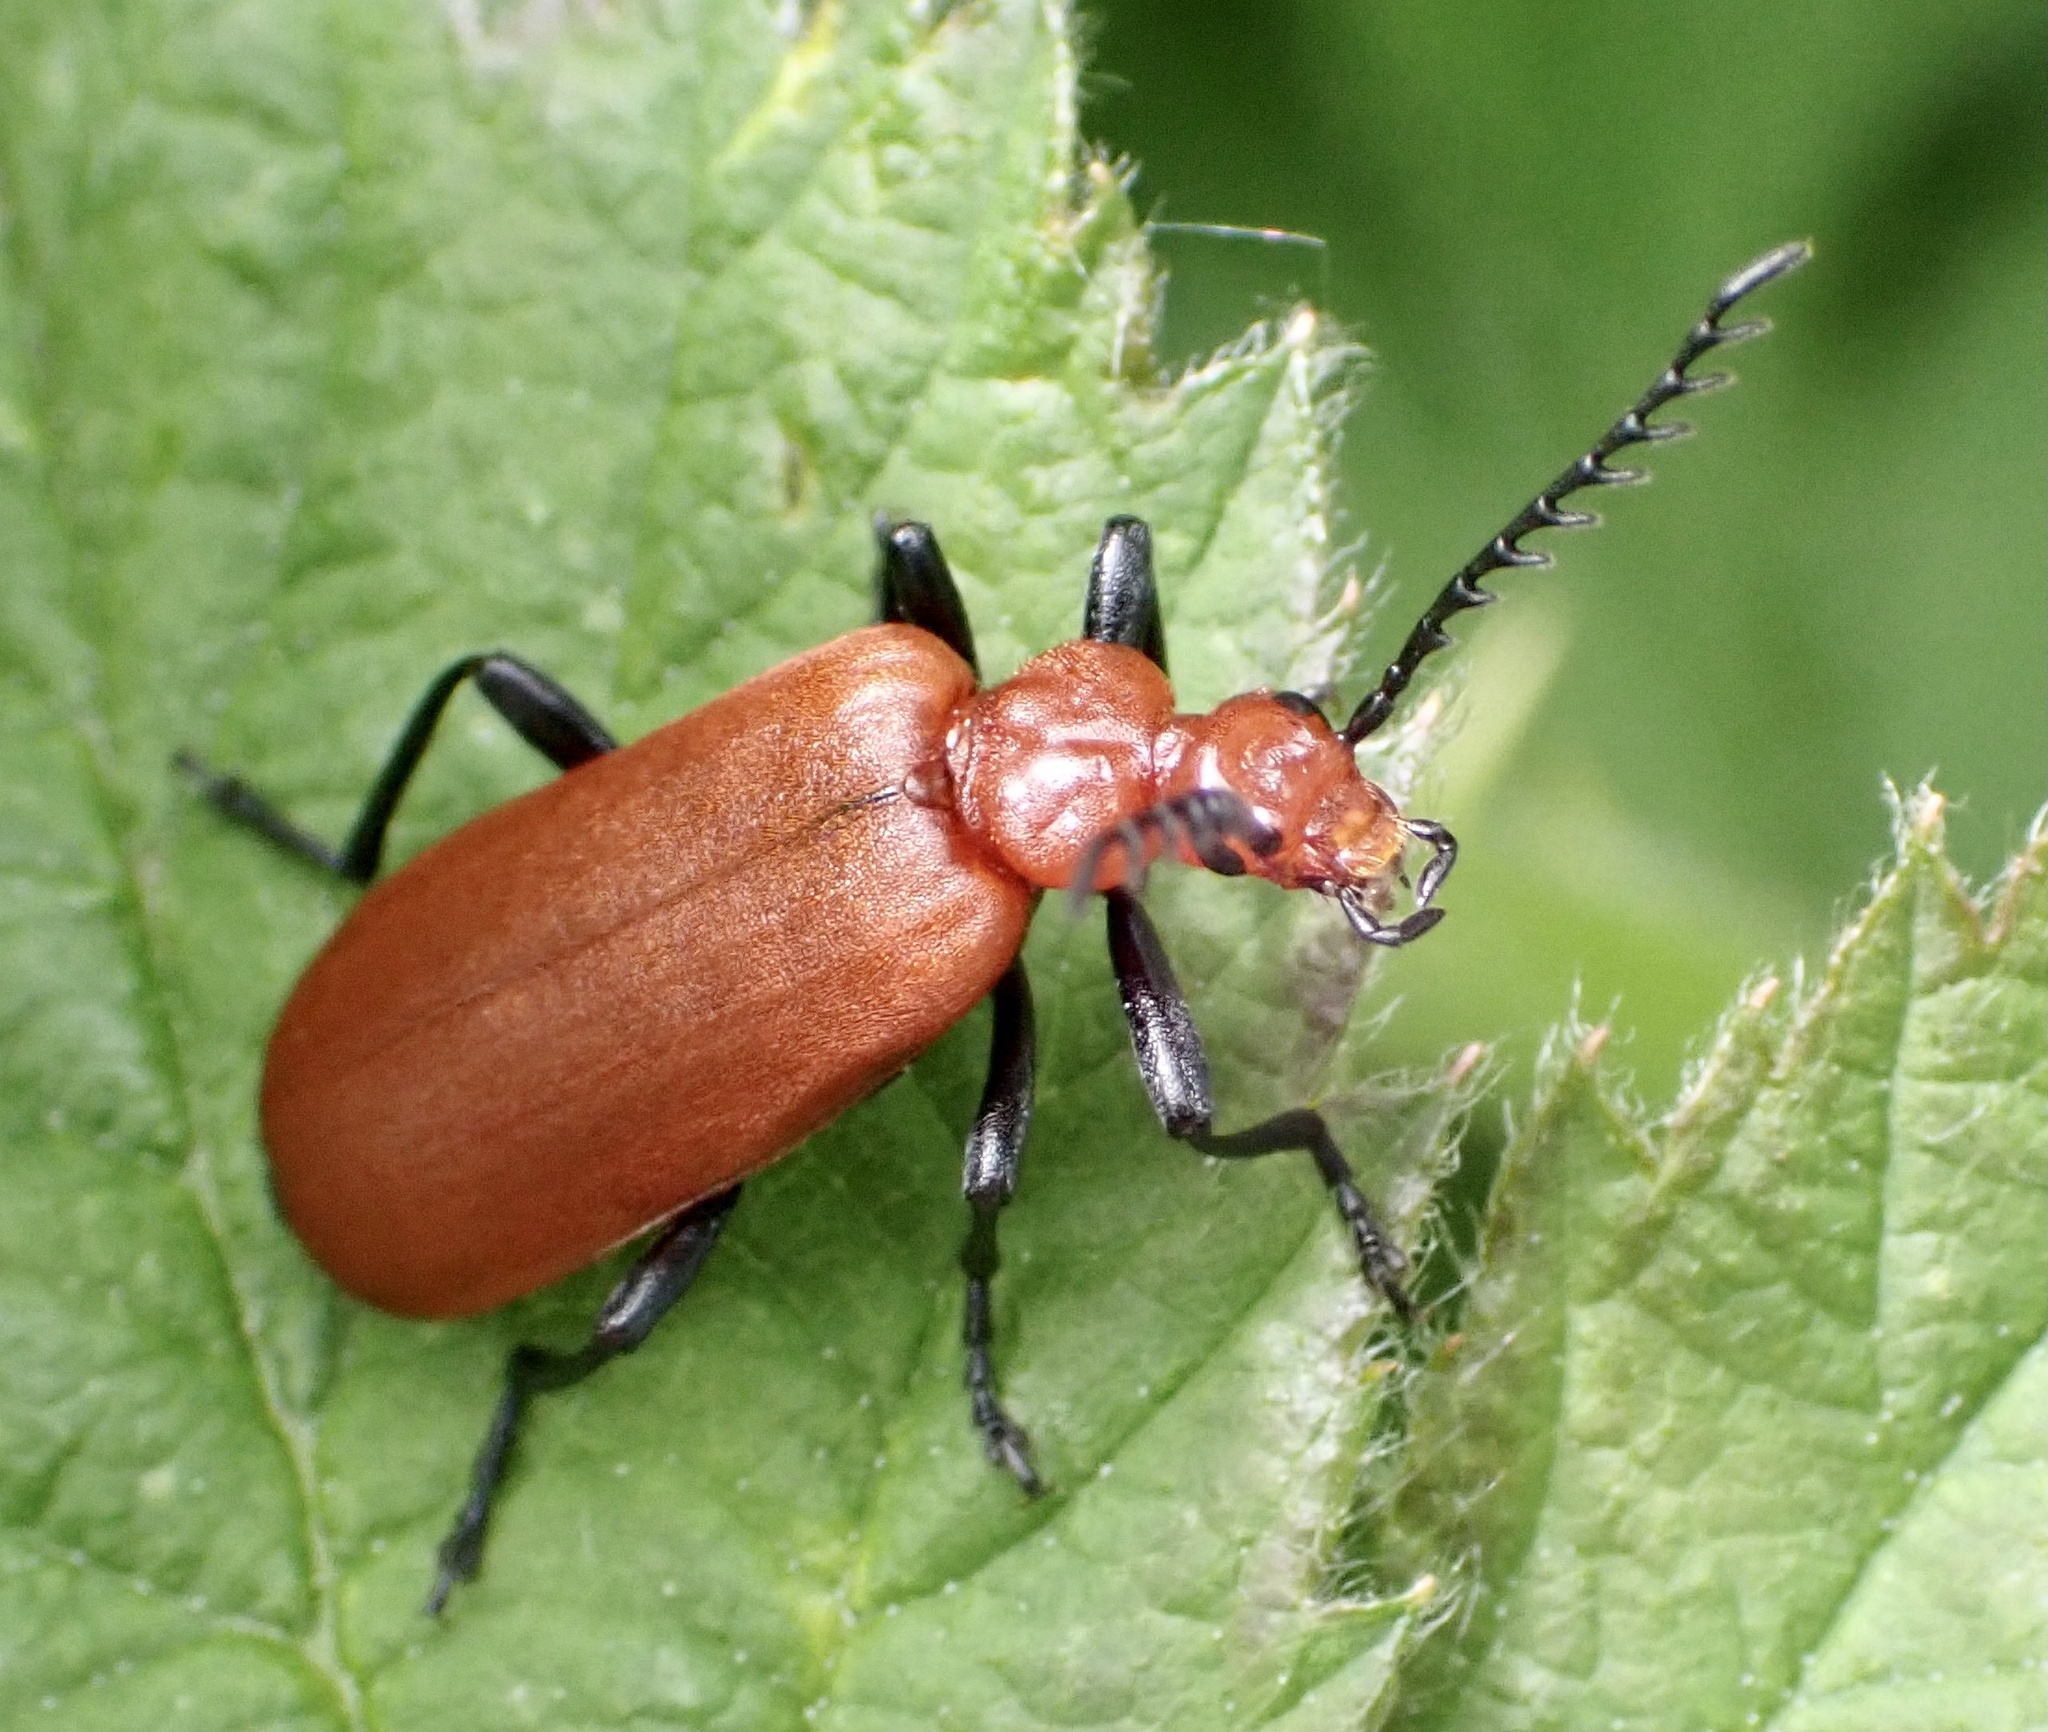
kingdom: Animalia
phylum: Arthropoda
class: Insecta
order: Coleoptera
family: Pyrochroidae
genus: Pyrochroa
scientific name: Pyrochroa serraticornis
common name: Red-headed cardinal beetle
